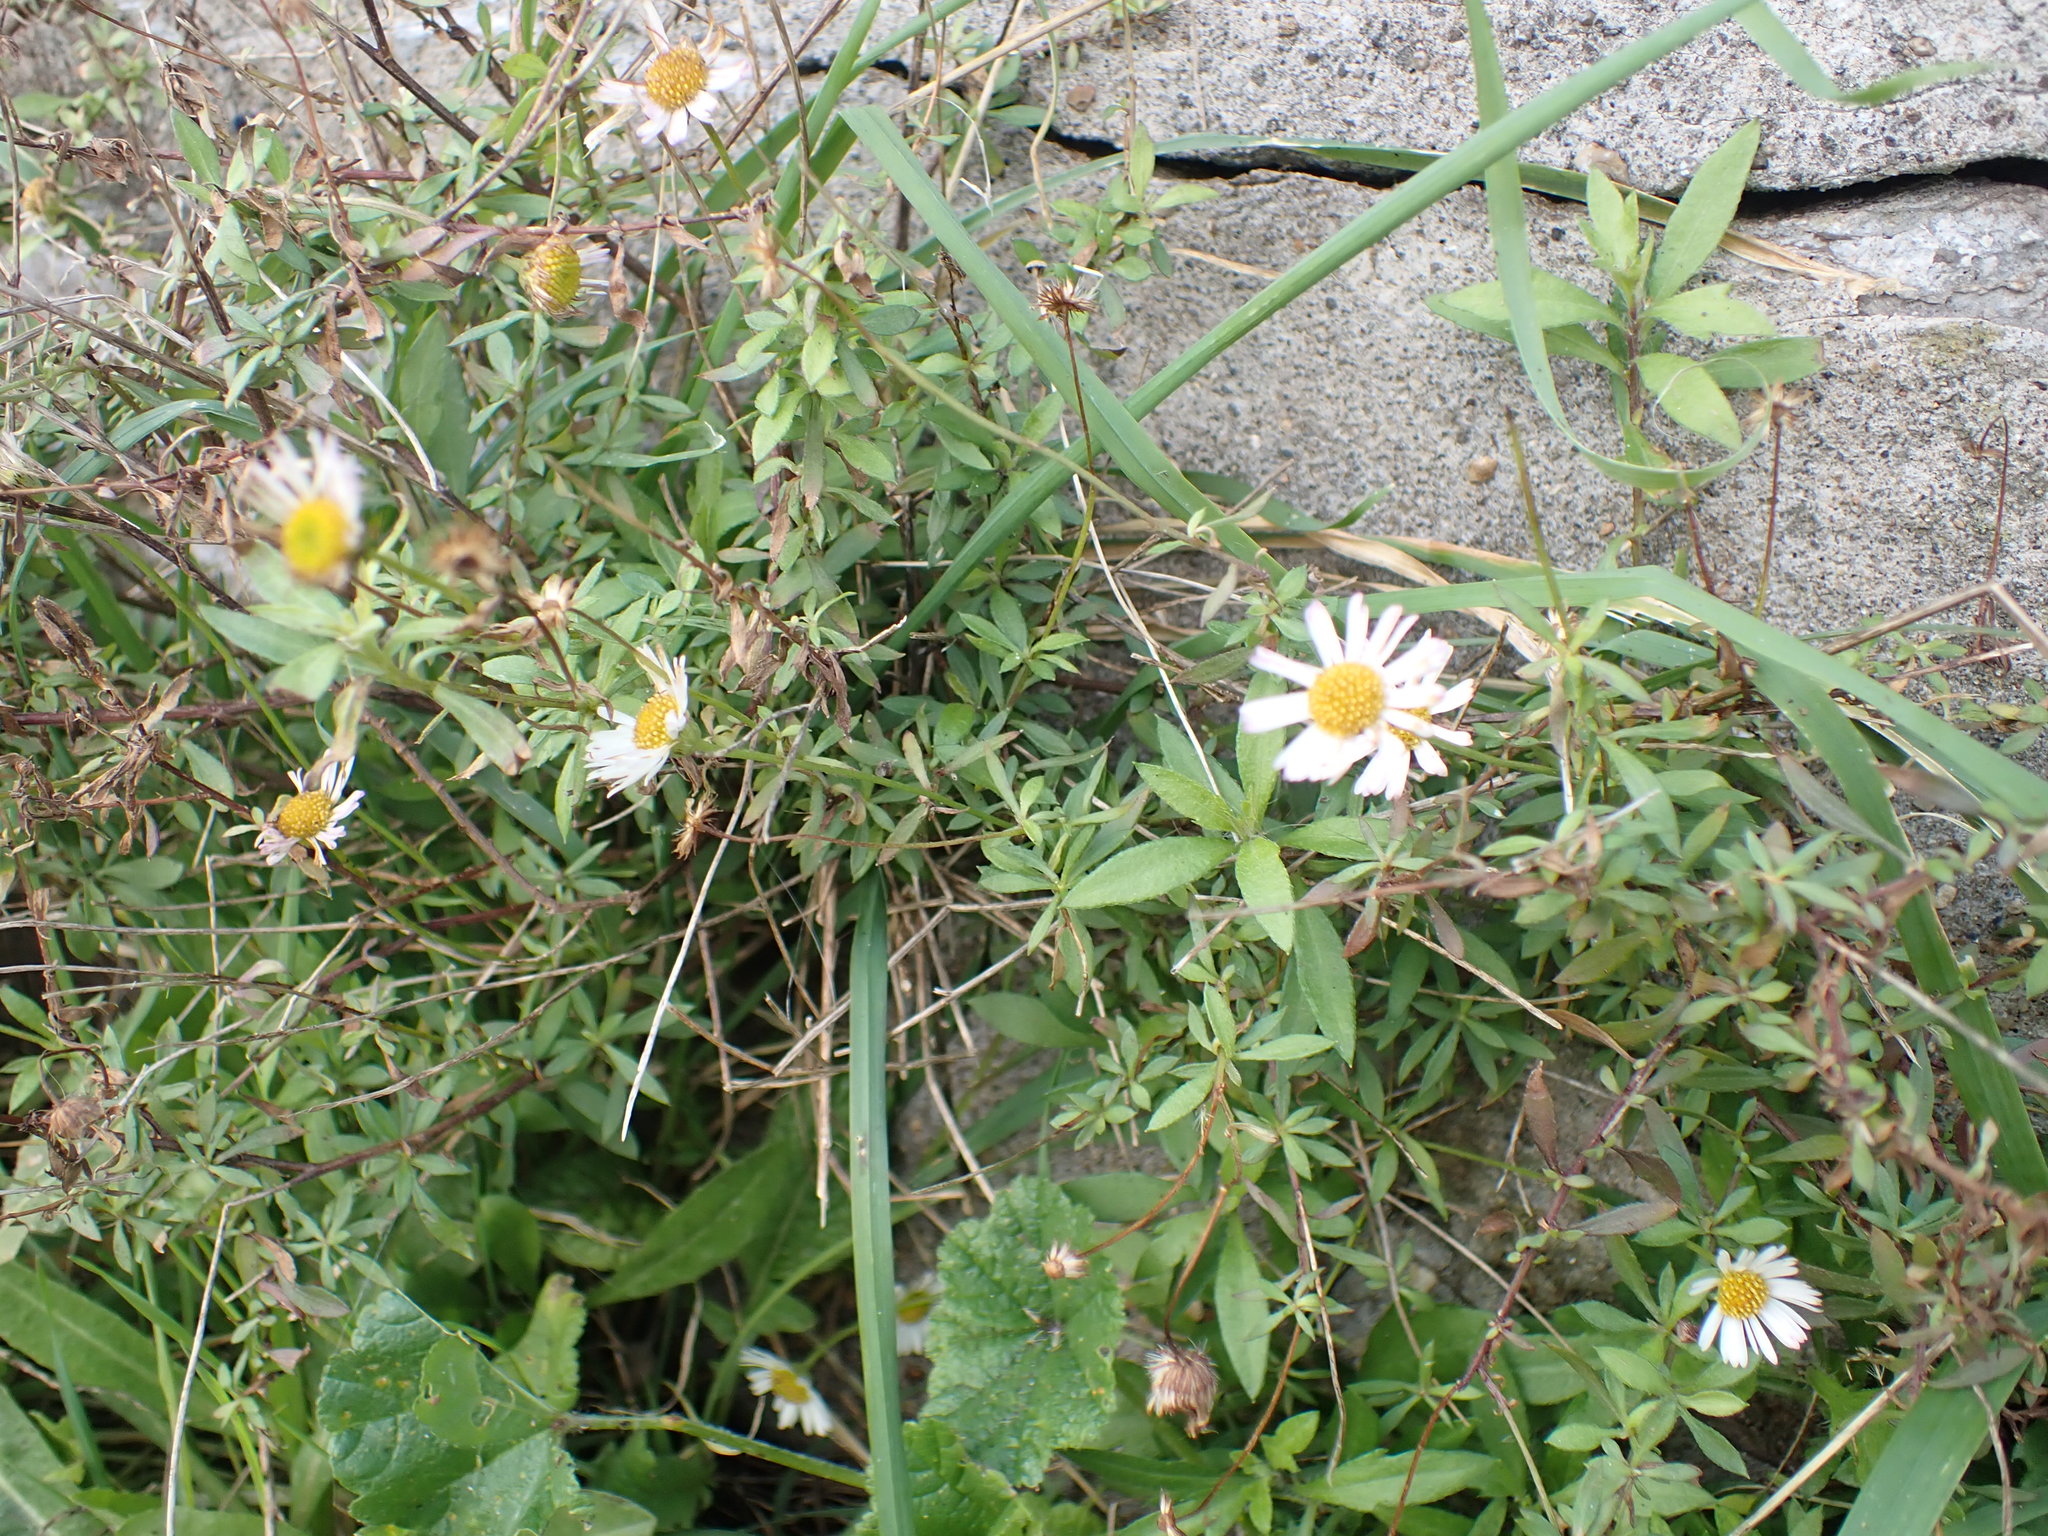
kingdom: Plantae
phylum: Tracheophyta
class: Magnoliopsida
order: Asterales
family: Asteraceae
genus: Erigeron
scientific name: Erigeron karvinskianus
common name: Mexican fleabane
